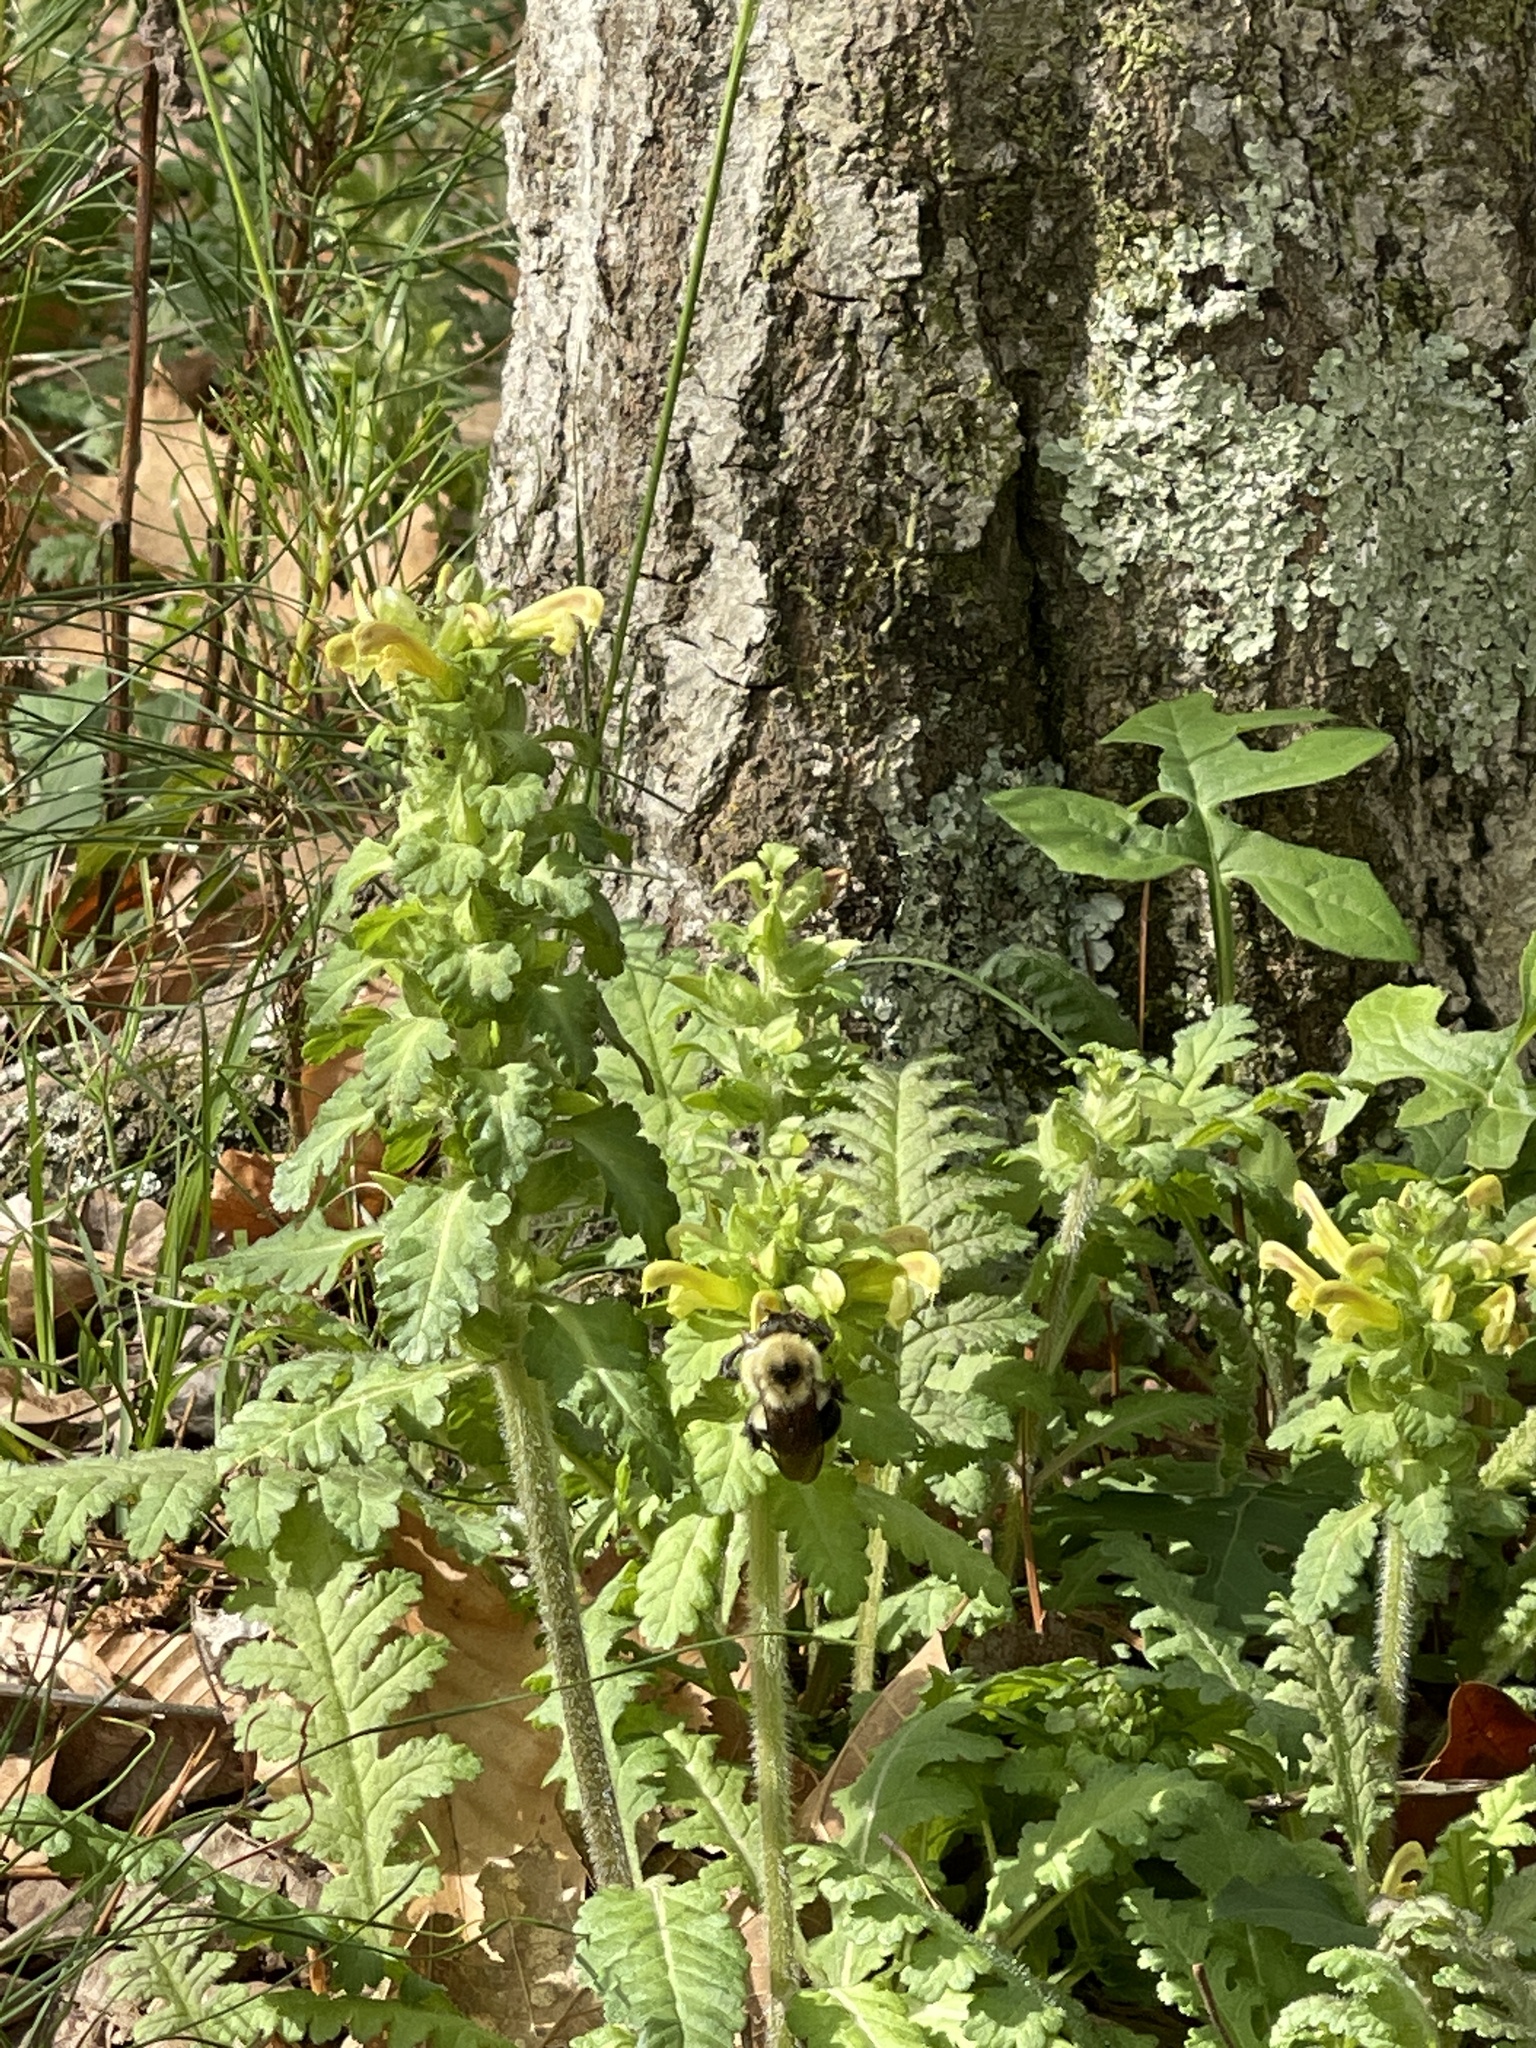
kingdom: Plantae
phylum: Tracheophyta
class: Magnoliopsida
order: Lamiales
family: Orobanchaceae
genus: Pedicularis
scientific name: Pedicularis canadensis
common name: Early lousewort
